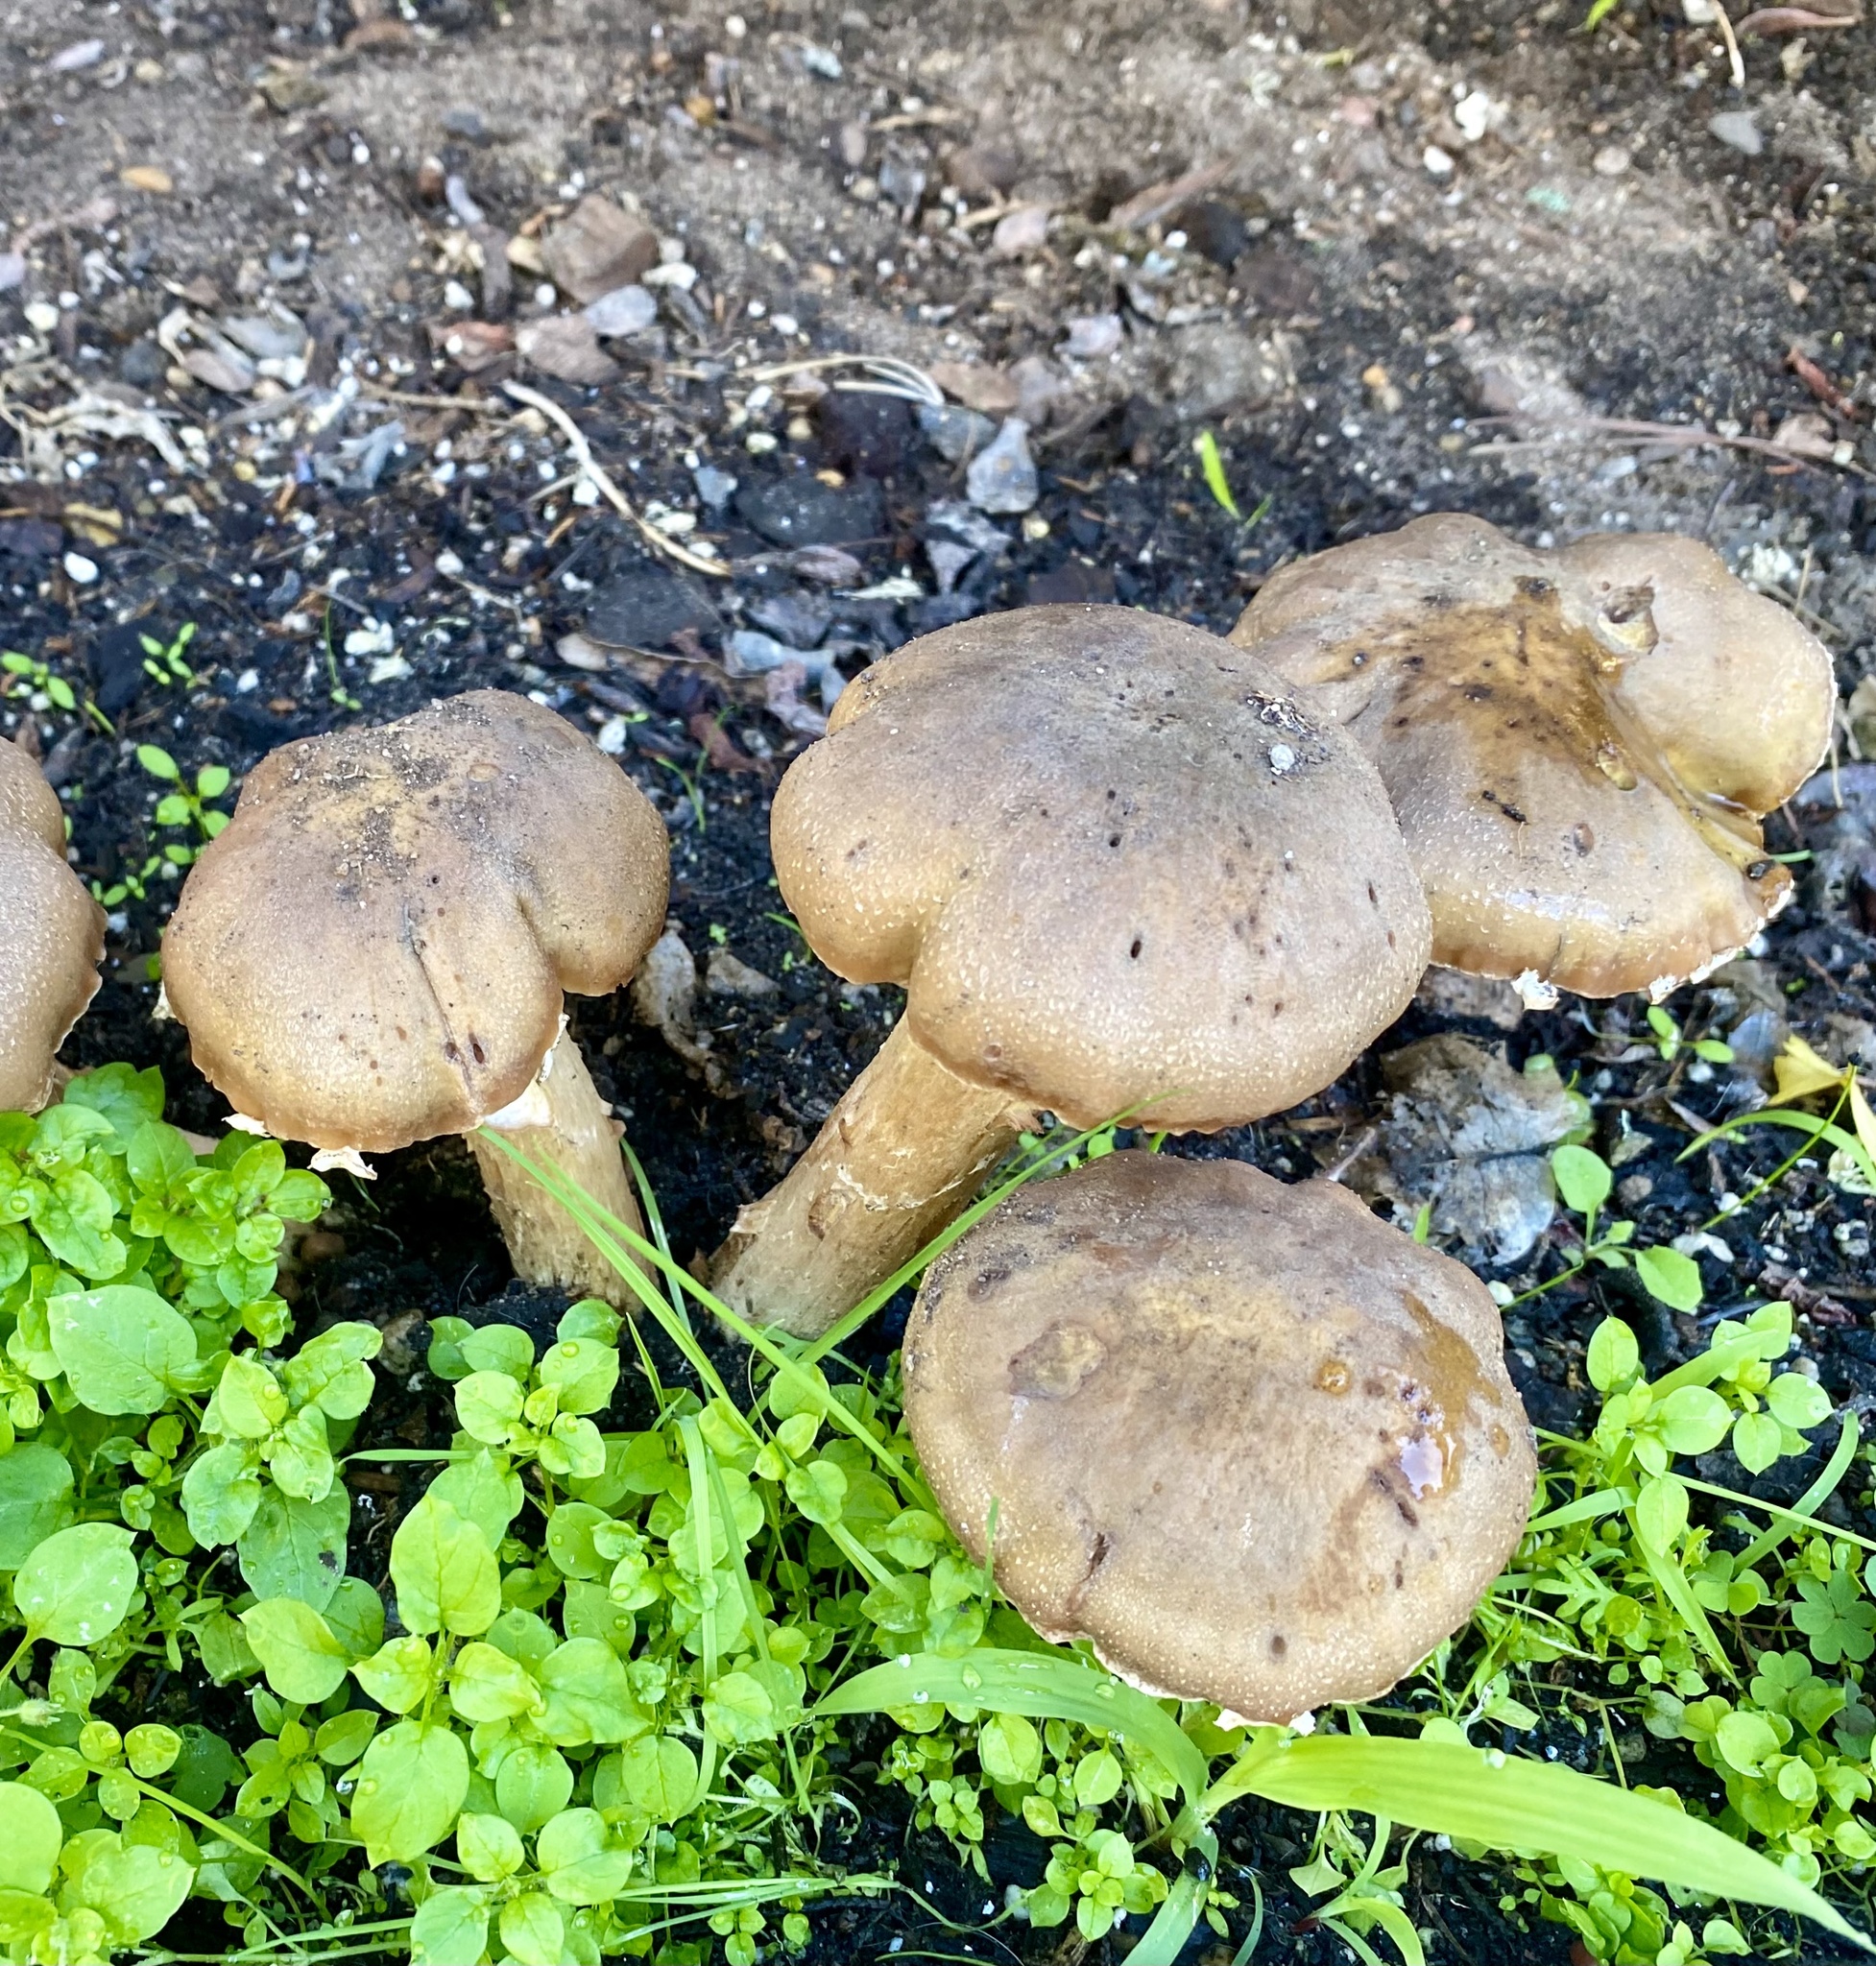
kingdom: Fungi
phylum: Basidiomycota
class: Agaricomycetes
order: Agaricales
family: Physalacriaceae
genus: Armillaria
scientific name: Armillaria mellea
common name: Honey fungus
